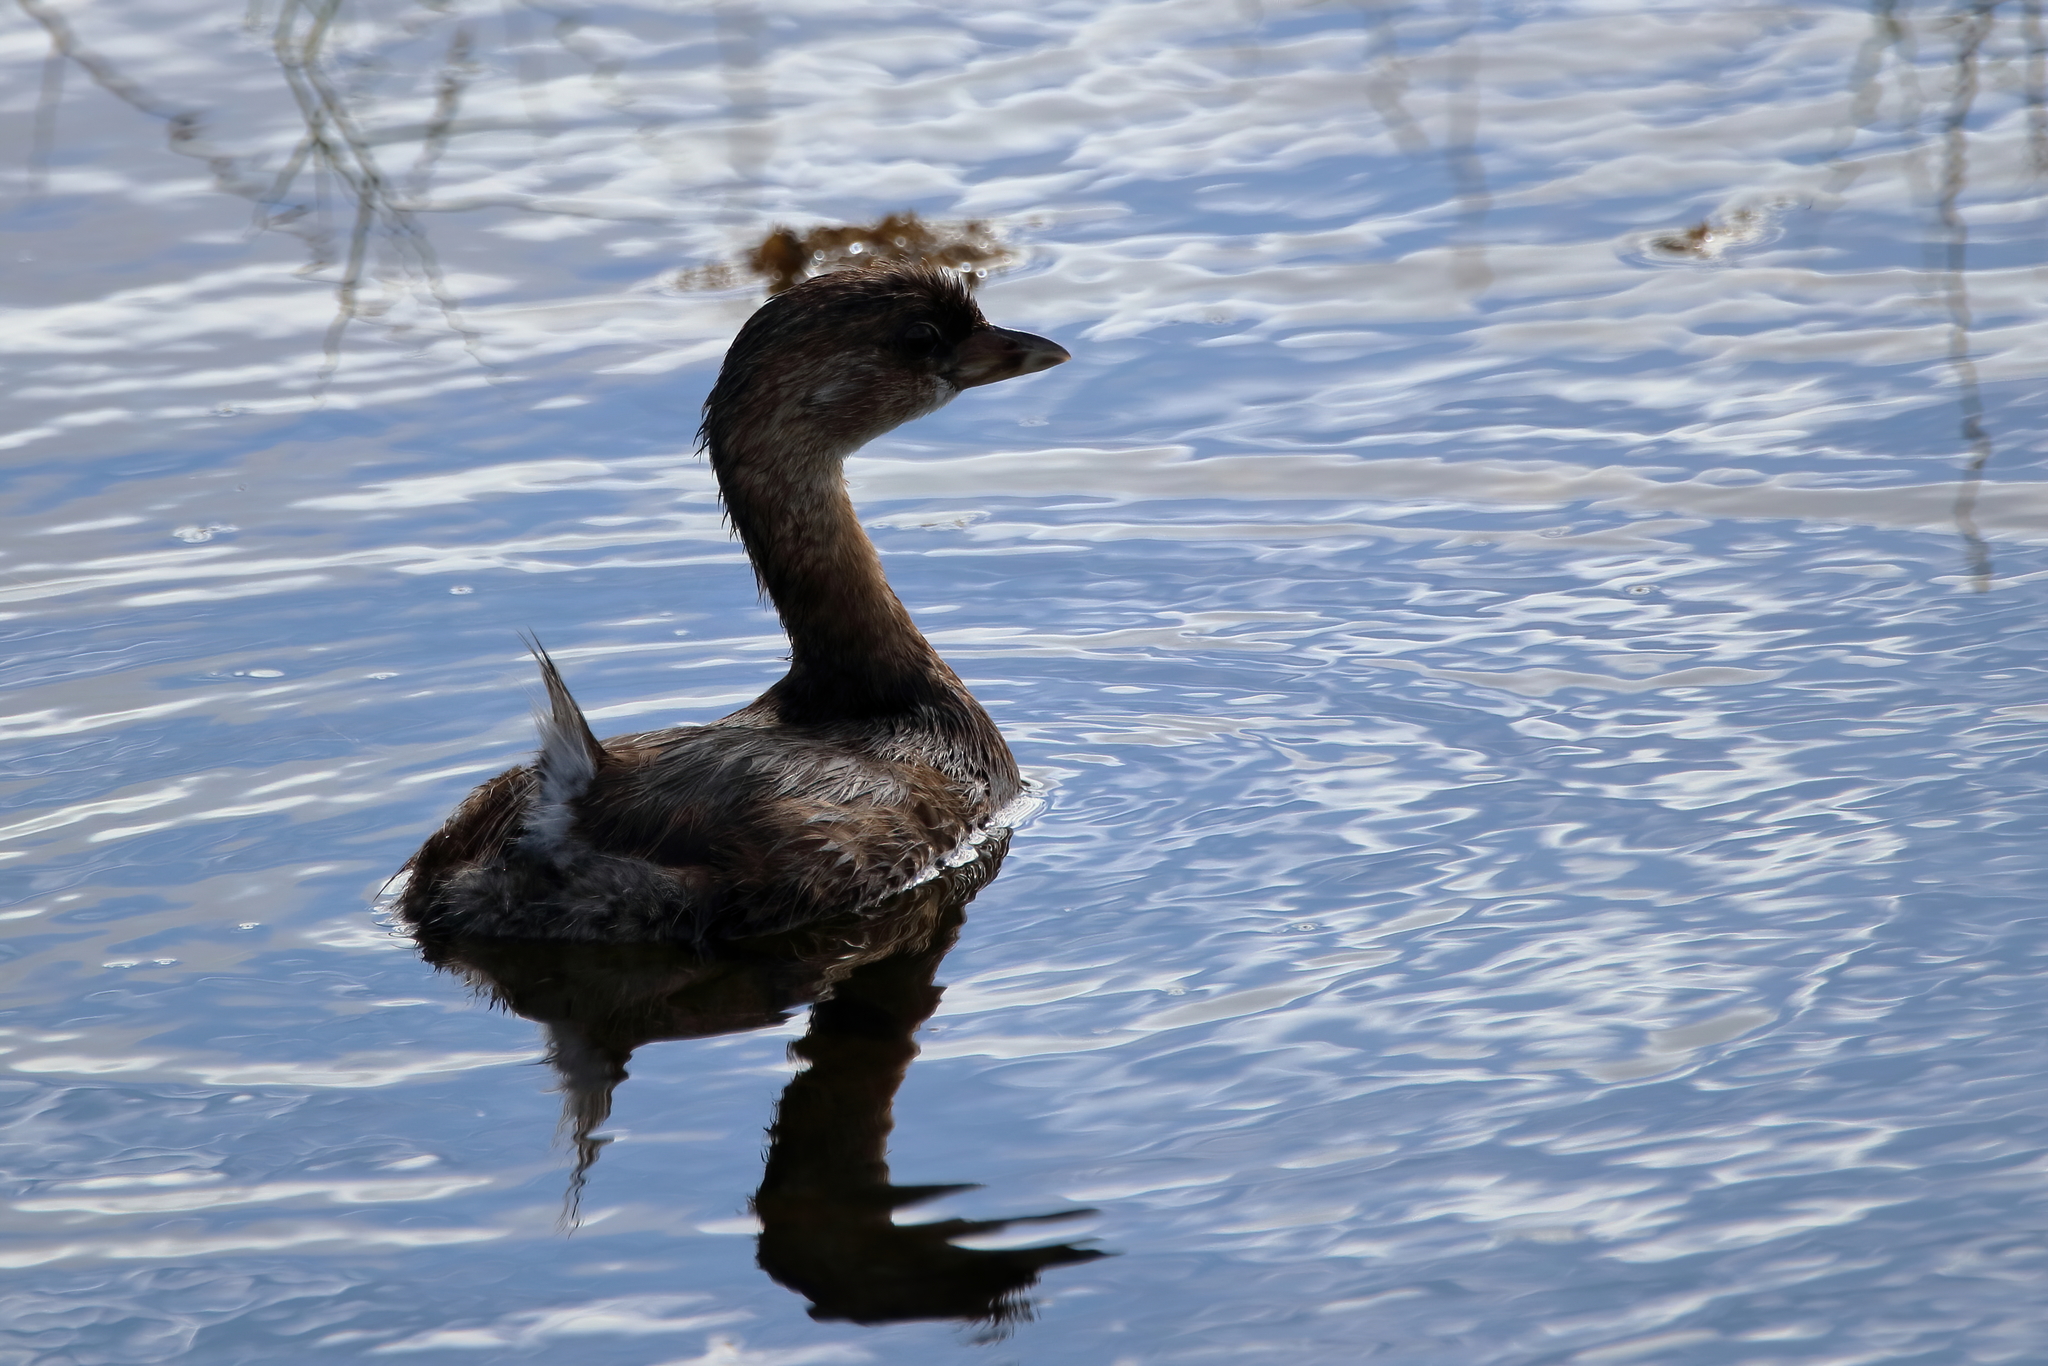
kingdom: Animalia
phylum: Chordata
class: Aves
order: Podicipediformes
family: Podicipedidae
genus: Podilymbus
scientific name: Podilymbus podiceps
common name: Pied-billed grebe
